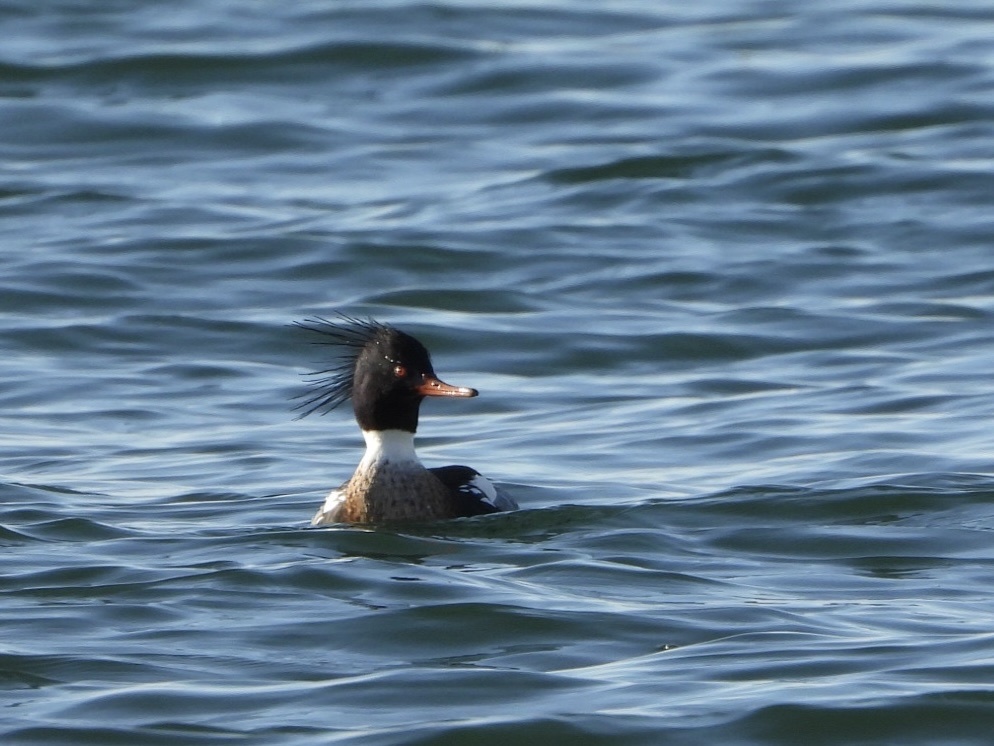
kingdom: Animalia
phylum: Chordata
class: Aves
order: Anseriformes
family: Anatidae
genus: Mergus
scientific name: Mergus serrator
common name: Red-breasted merganser
